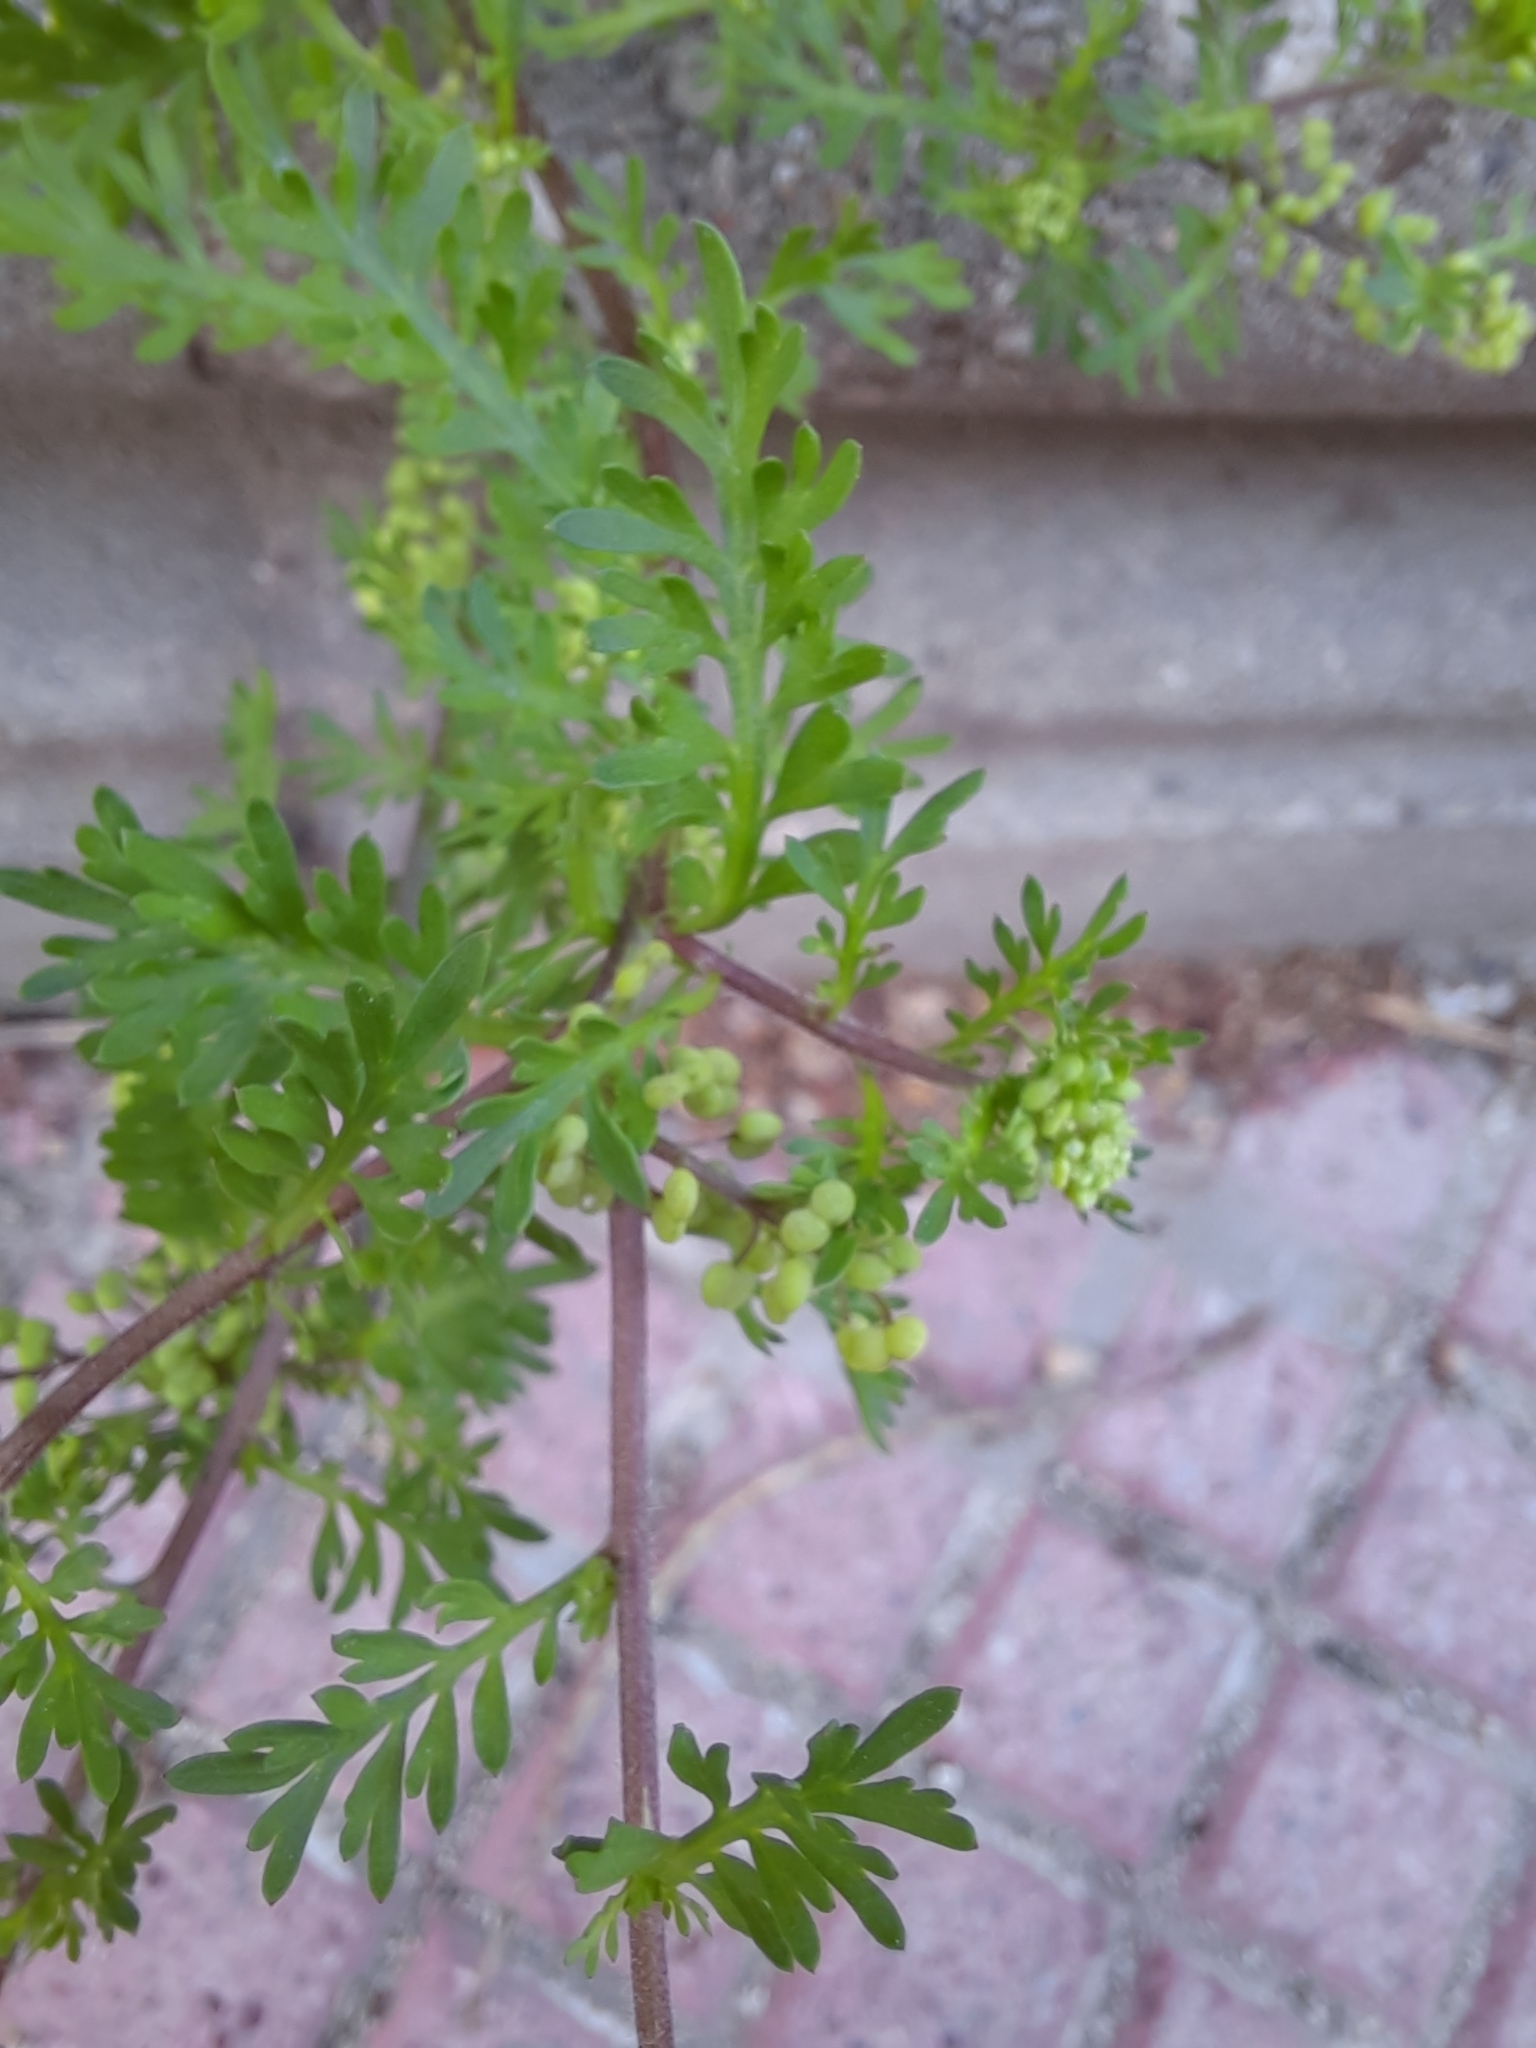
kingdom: Plantae
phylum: Tracheophyta
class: Magnoliopsida
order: Brassicales
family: Brassicaceae
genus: Lepidium
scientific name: Lepidium didymum
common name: Lesser swinecress
